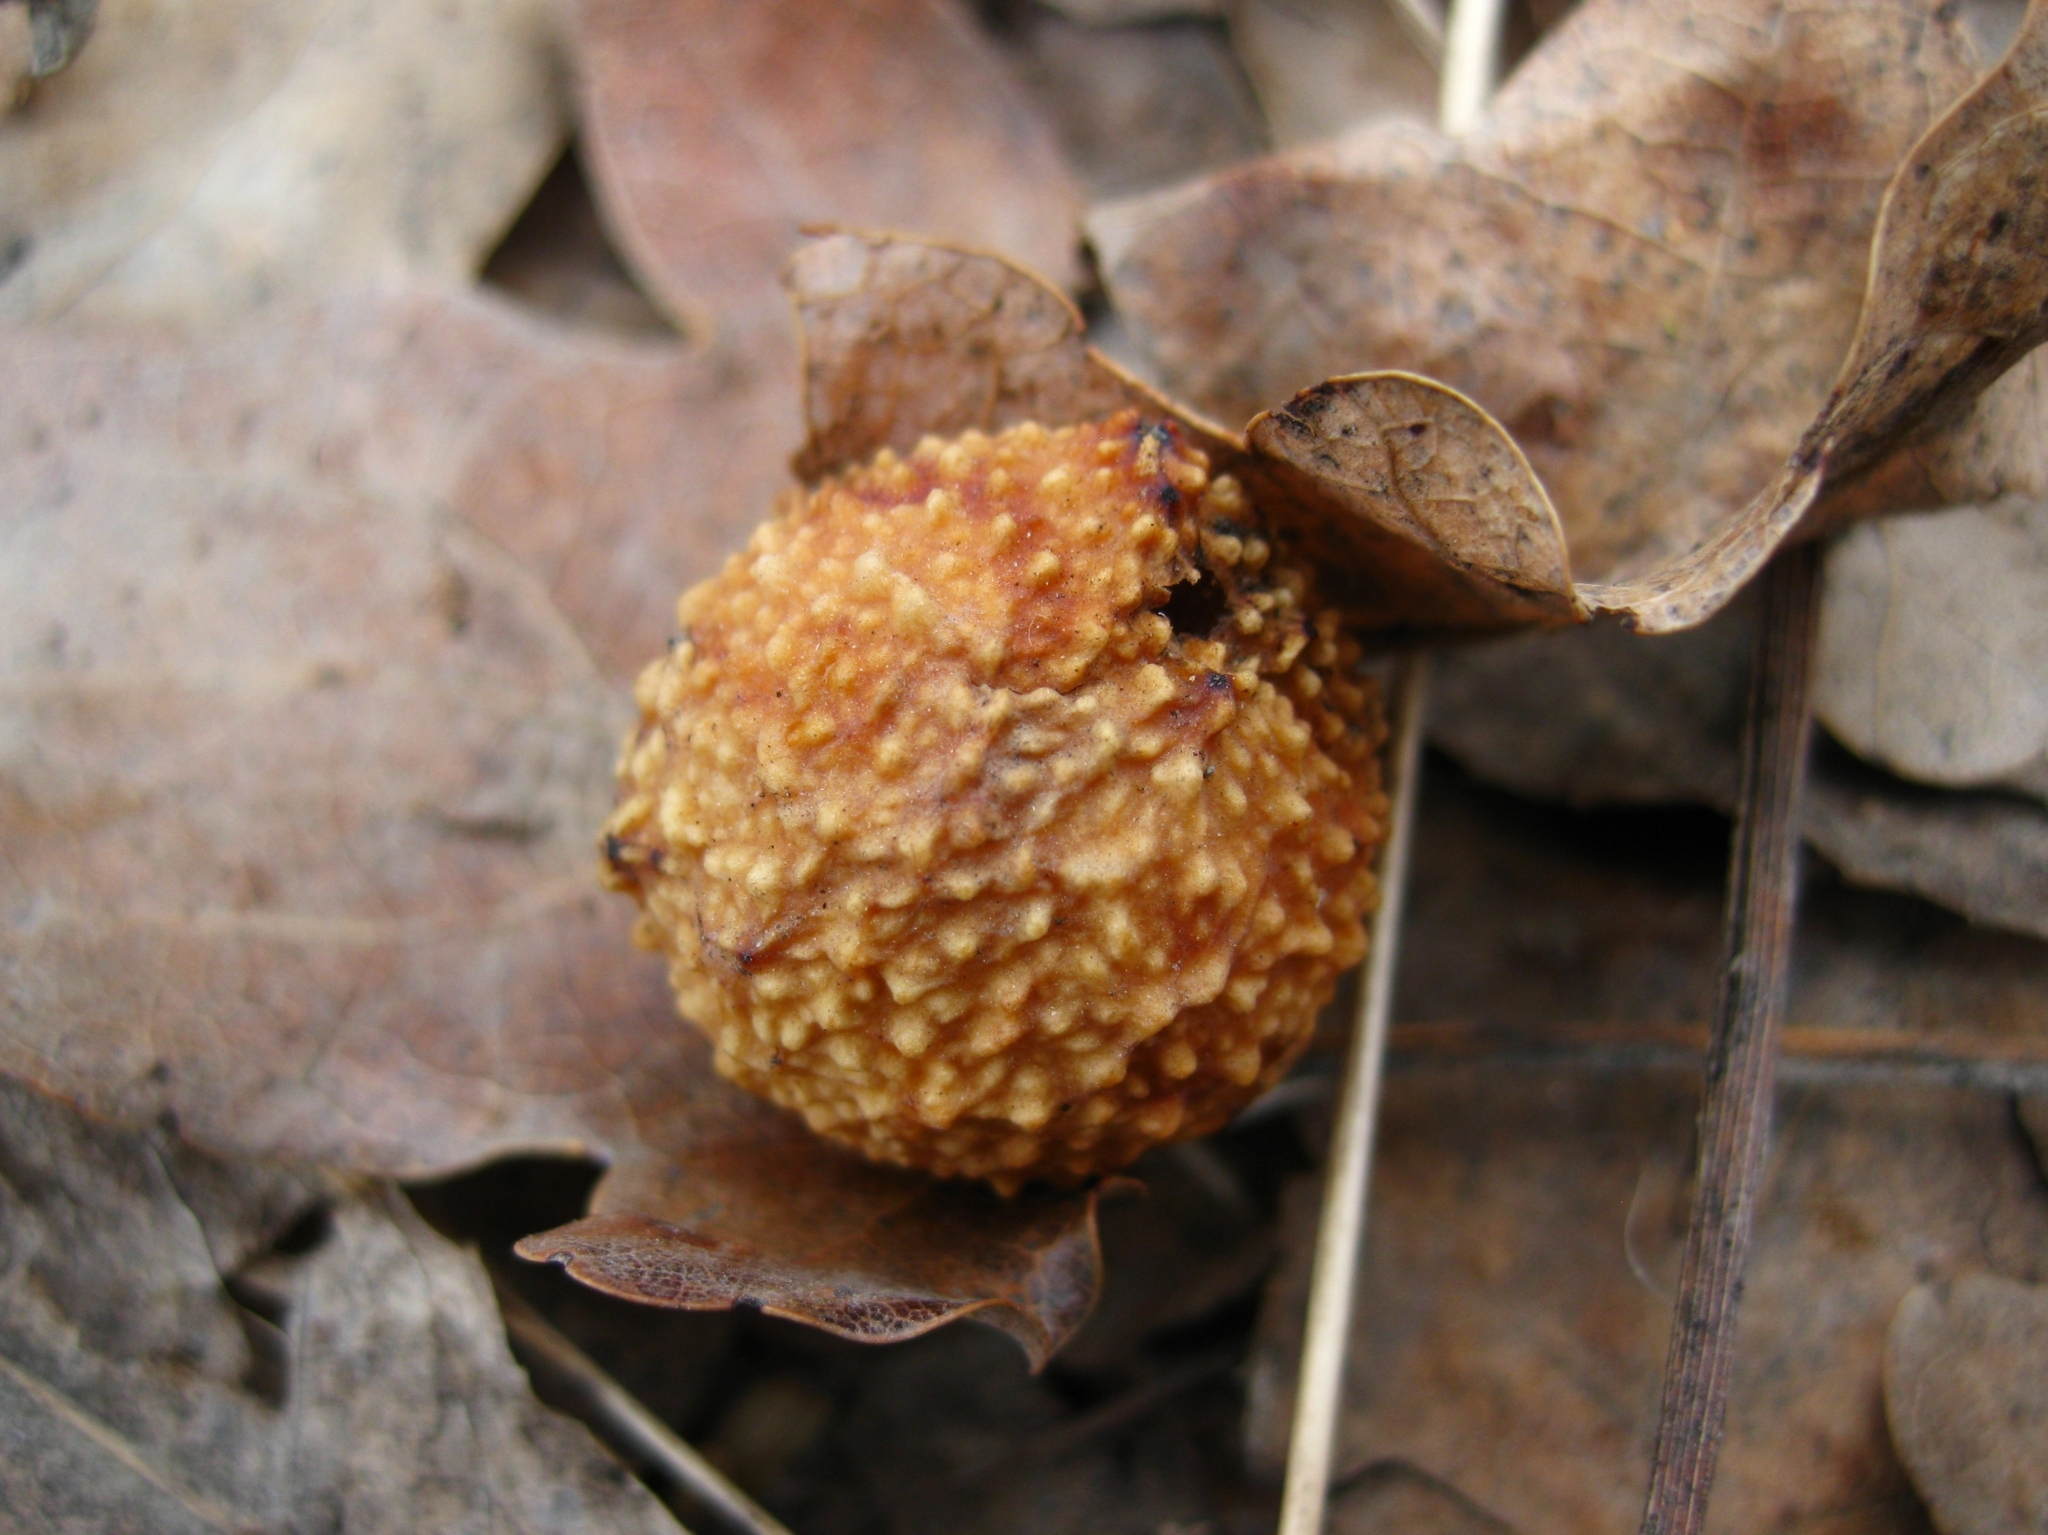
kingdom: Animalia
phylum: Arthropoda
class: Insecta
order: Hymenoptera
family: Cynipidae
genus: Cynips
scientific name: Cynips quercusfolii
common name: Cherry gall
